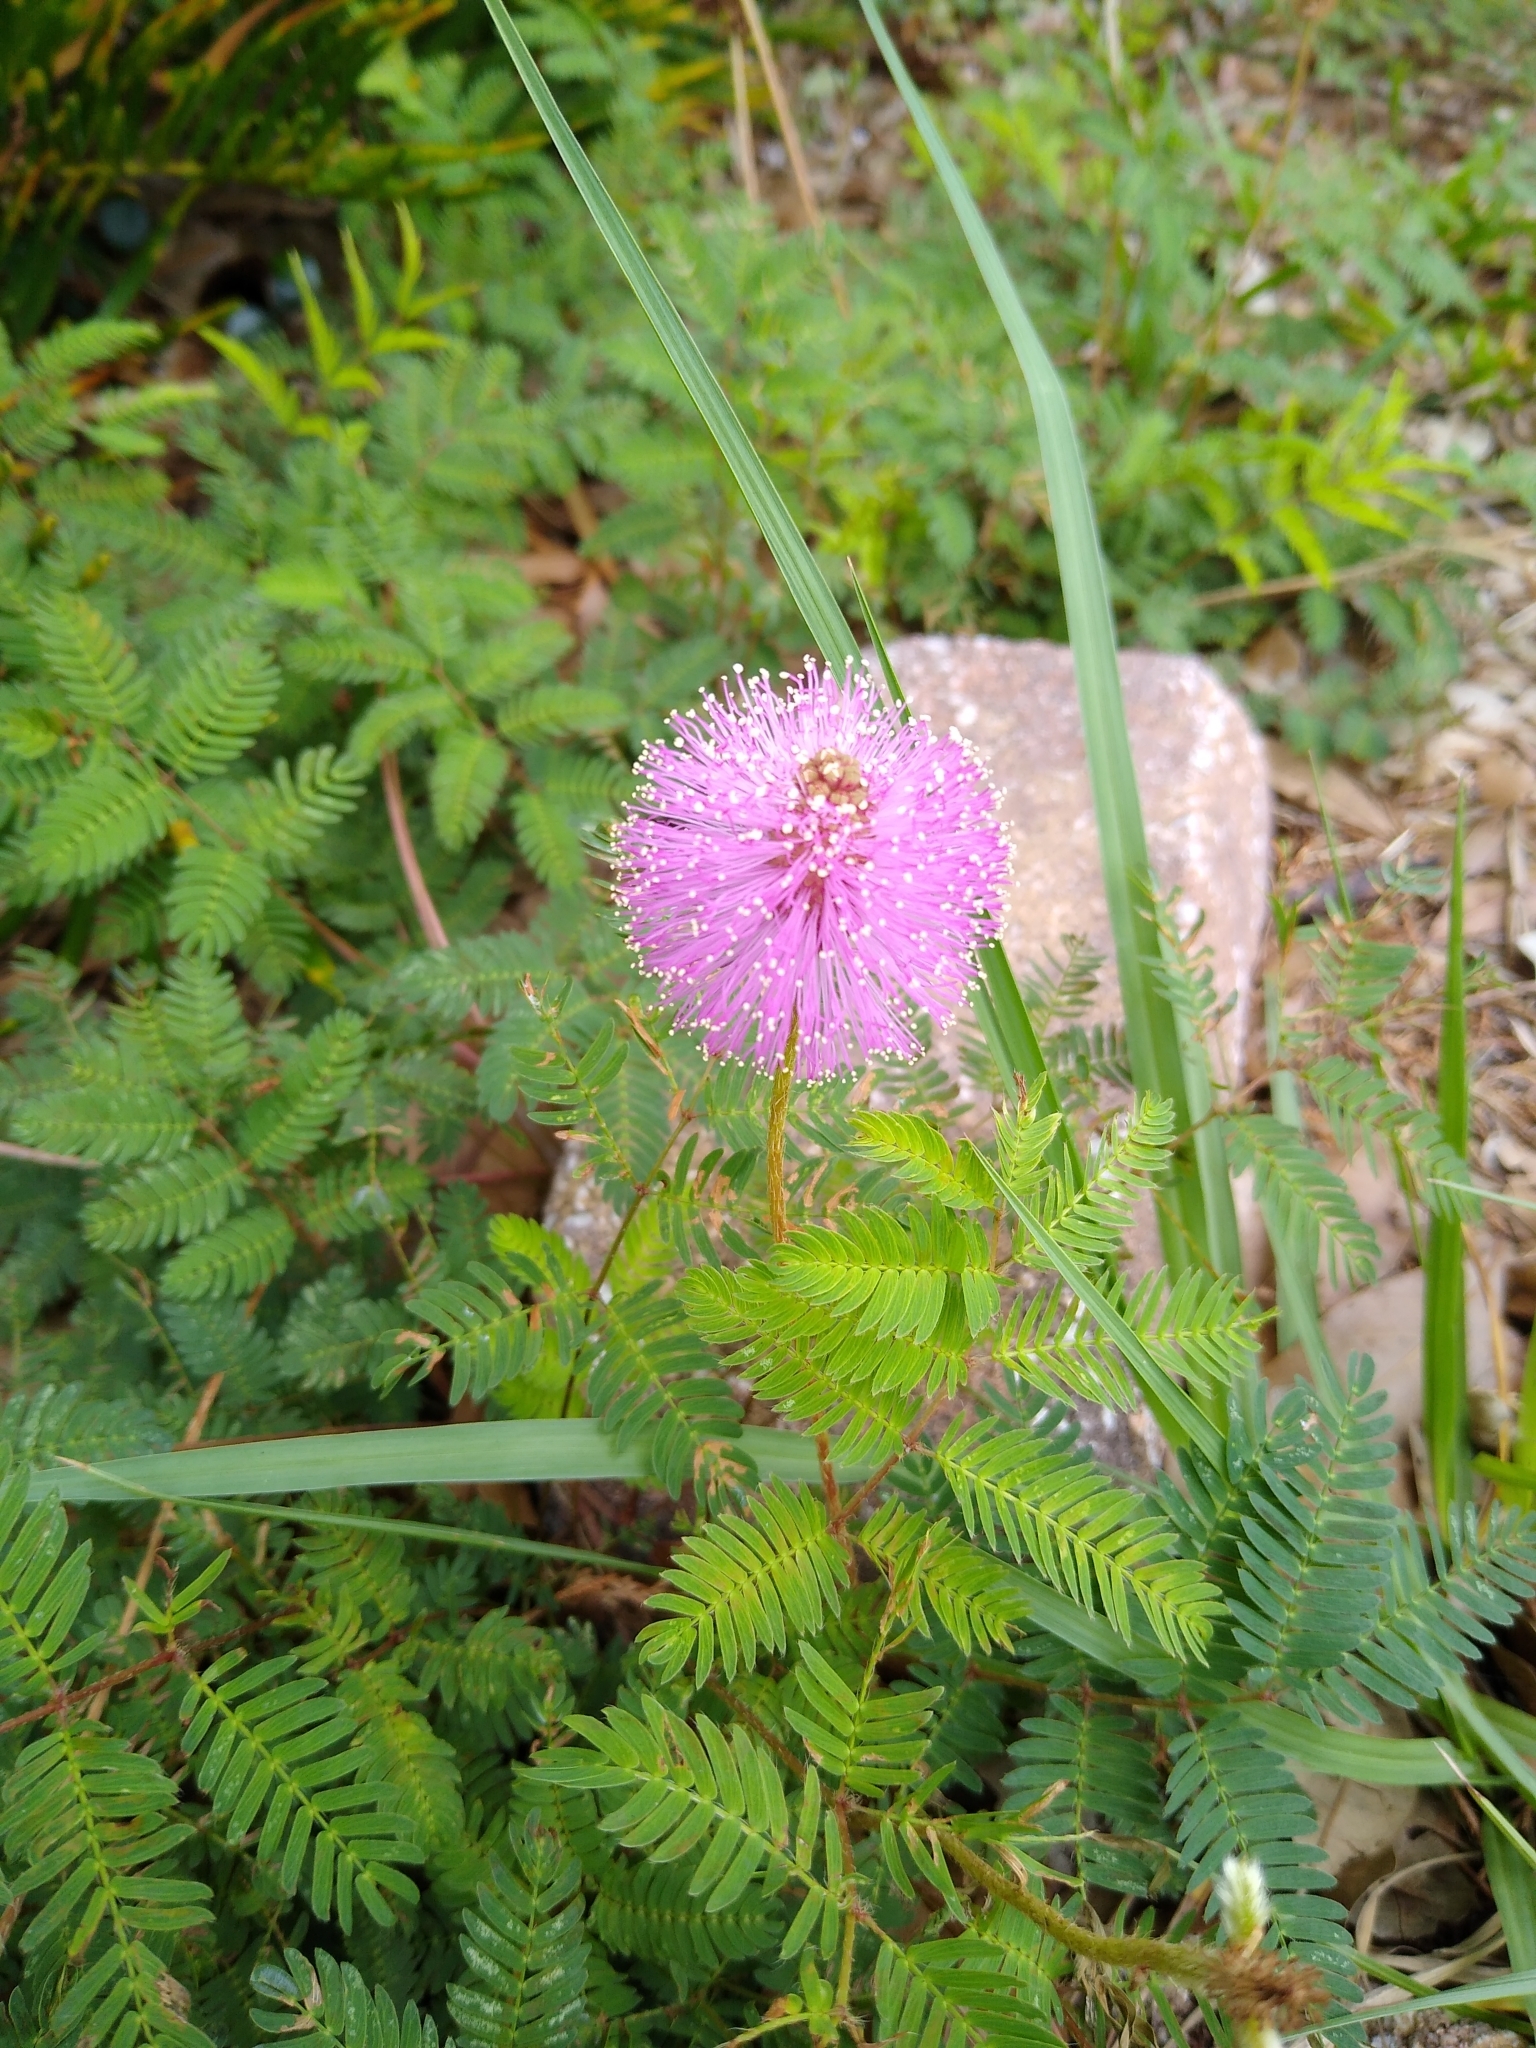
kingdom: Plantae
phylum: Tracheophyta
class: Magnoliopsida
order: Fabales
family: Fabaceae
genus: Mimosa
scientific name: Mimosa strigillosa
